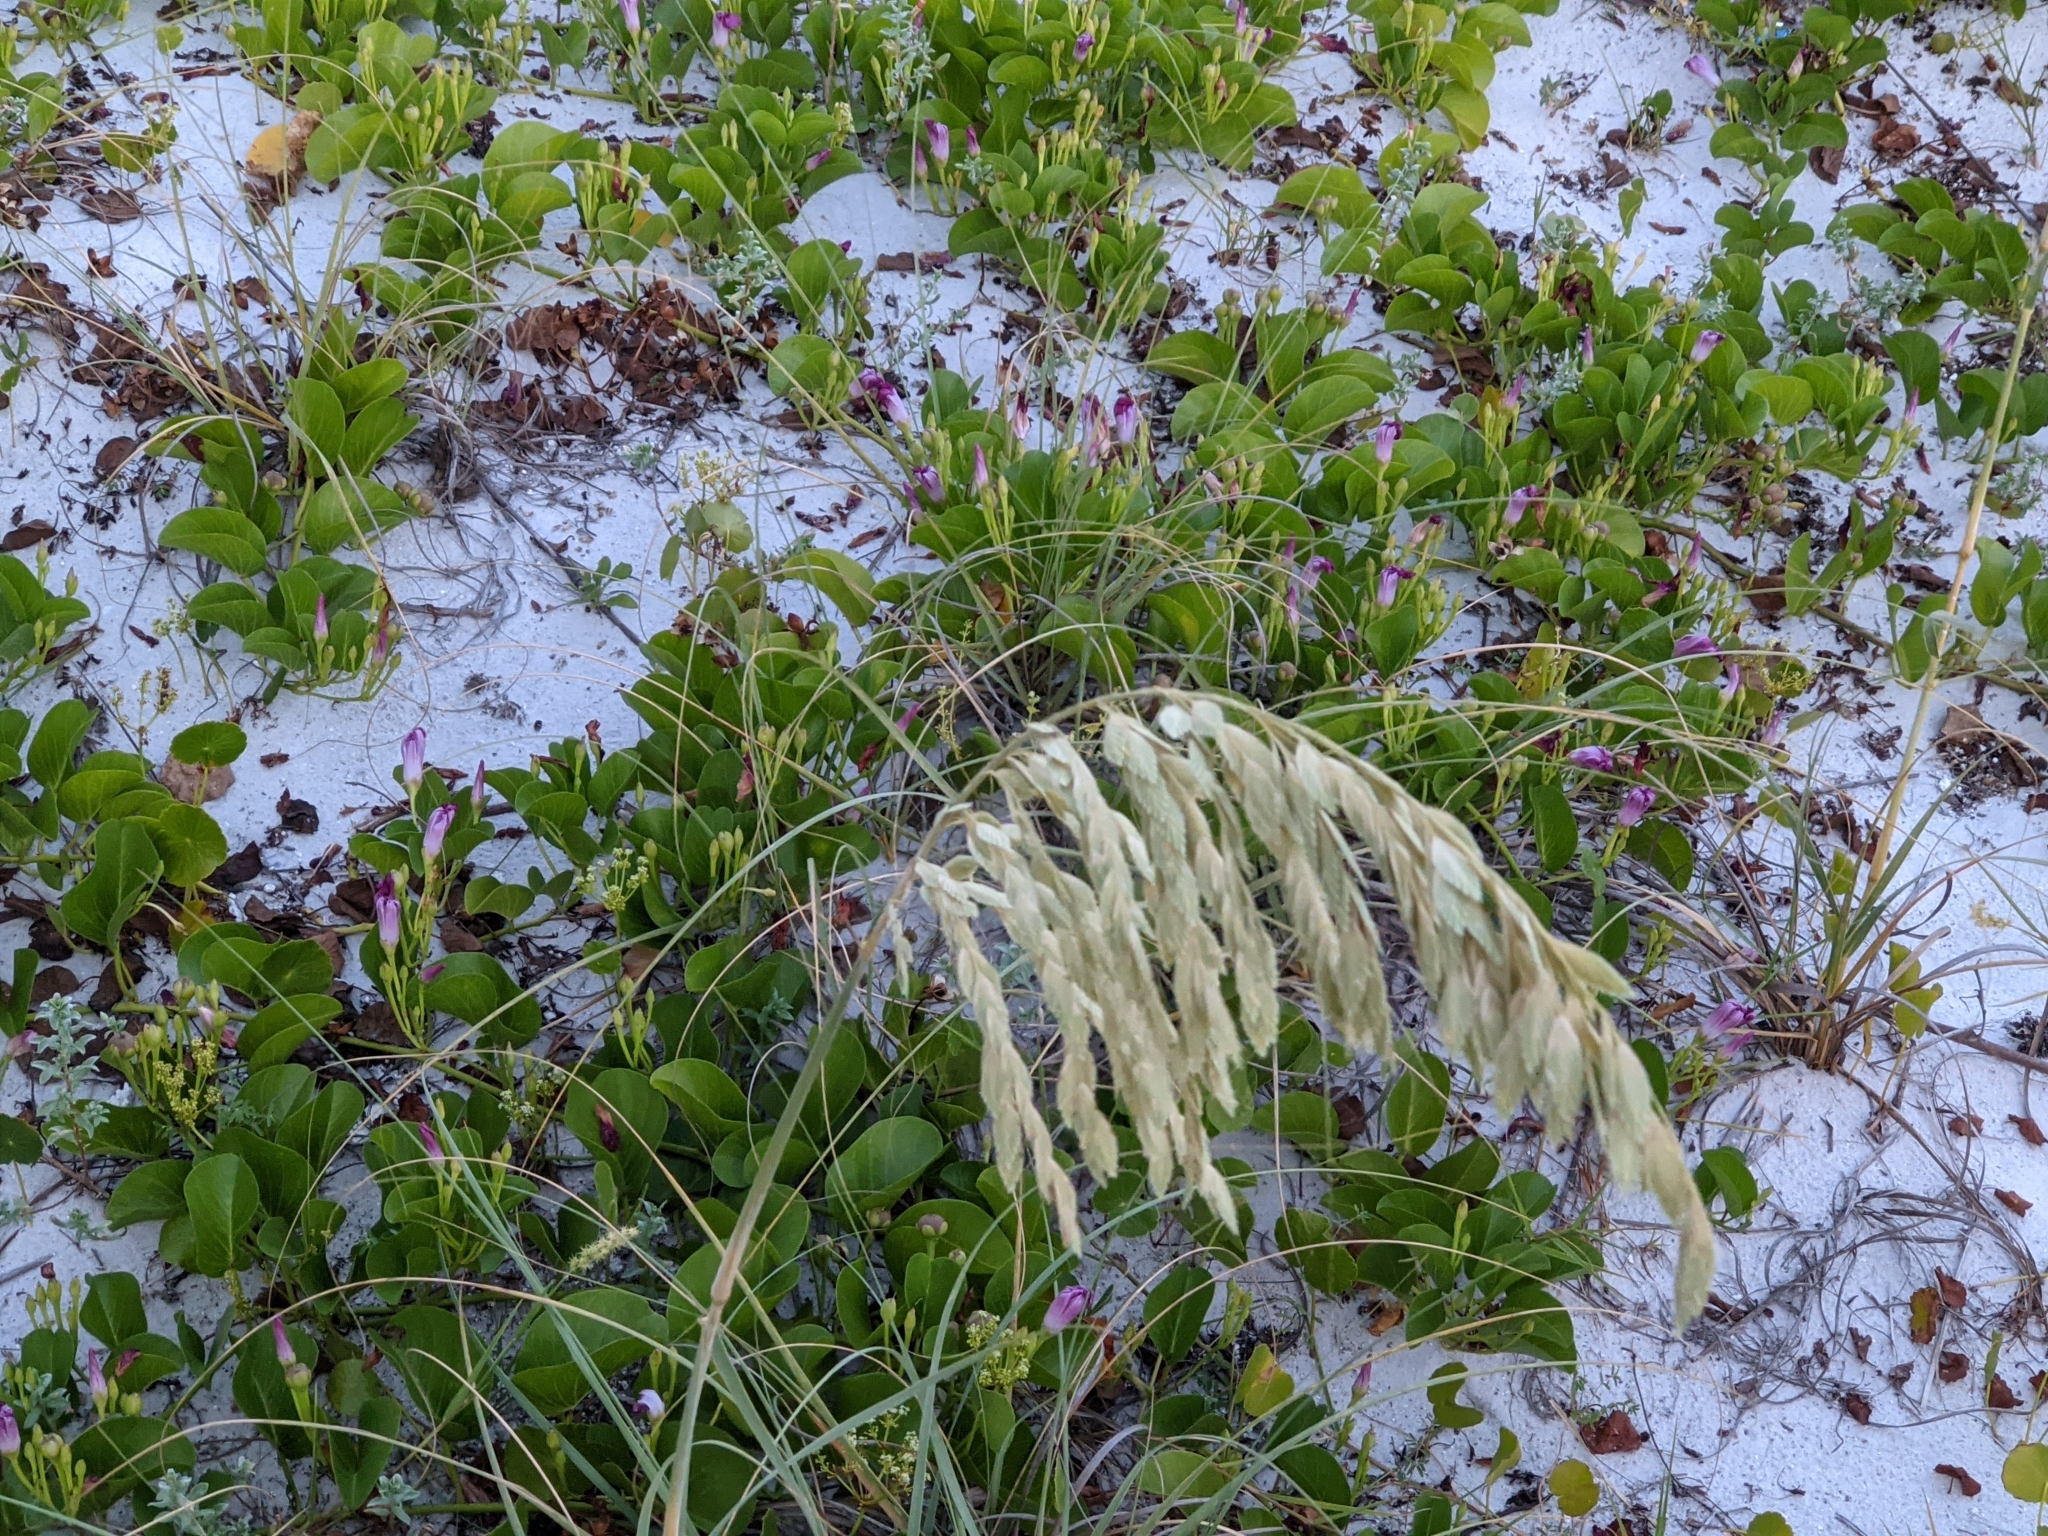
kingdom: Plantae
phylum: Tracheophyta
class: Liliopsida
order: Poales
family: Poaceae
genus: Uniola
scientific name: Uniola paniculata
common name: Seaside-oats
